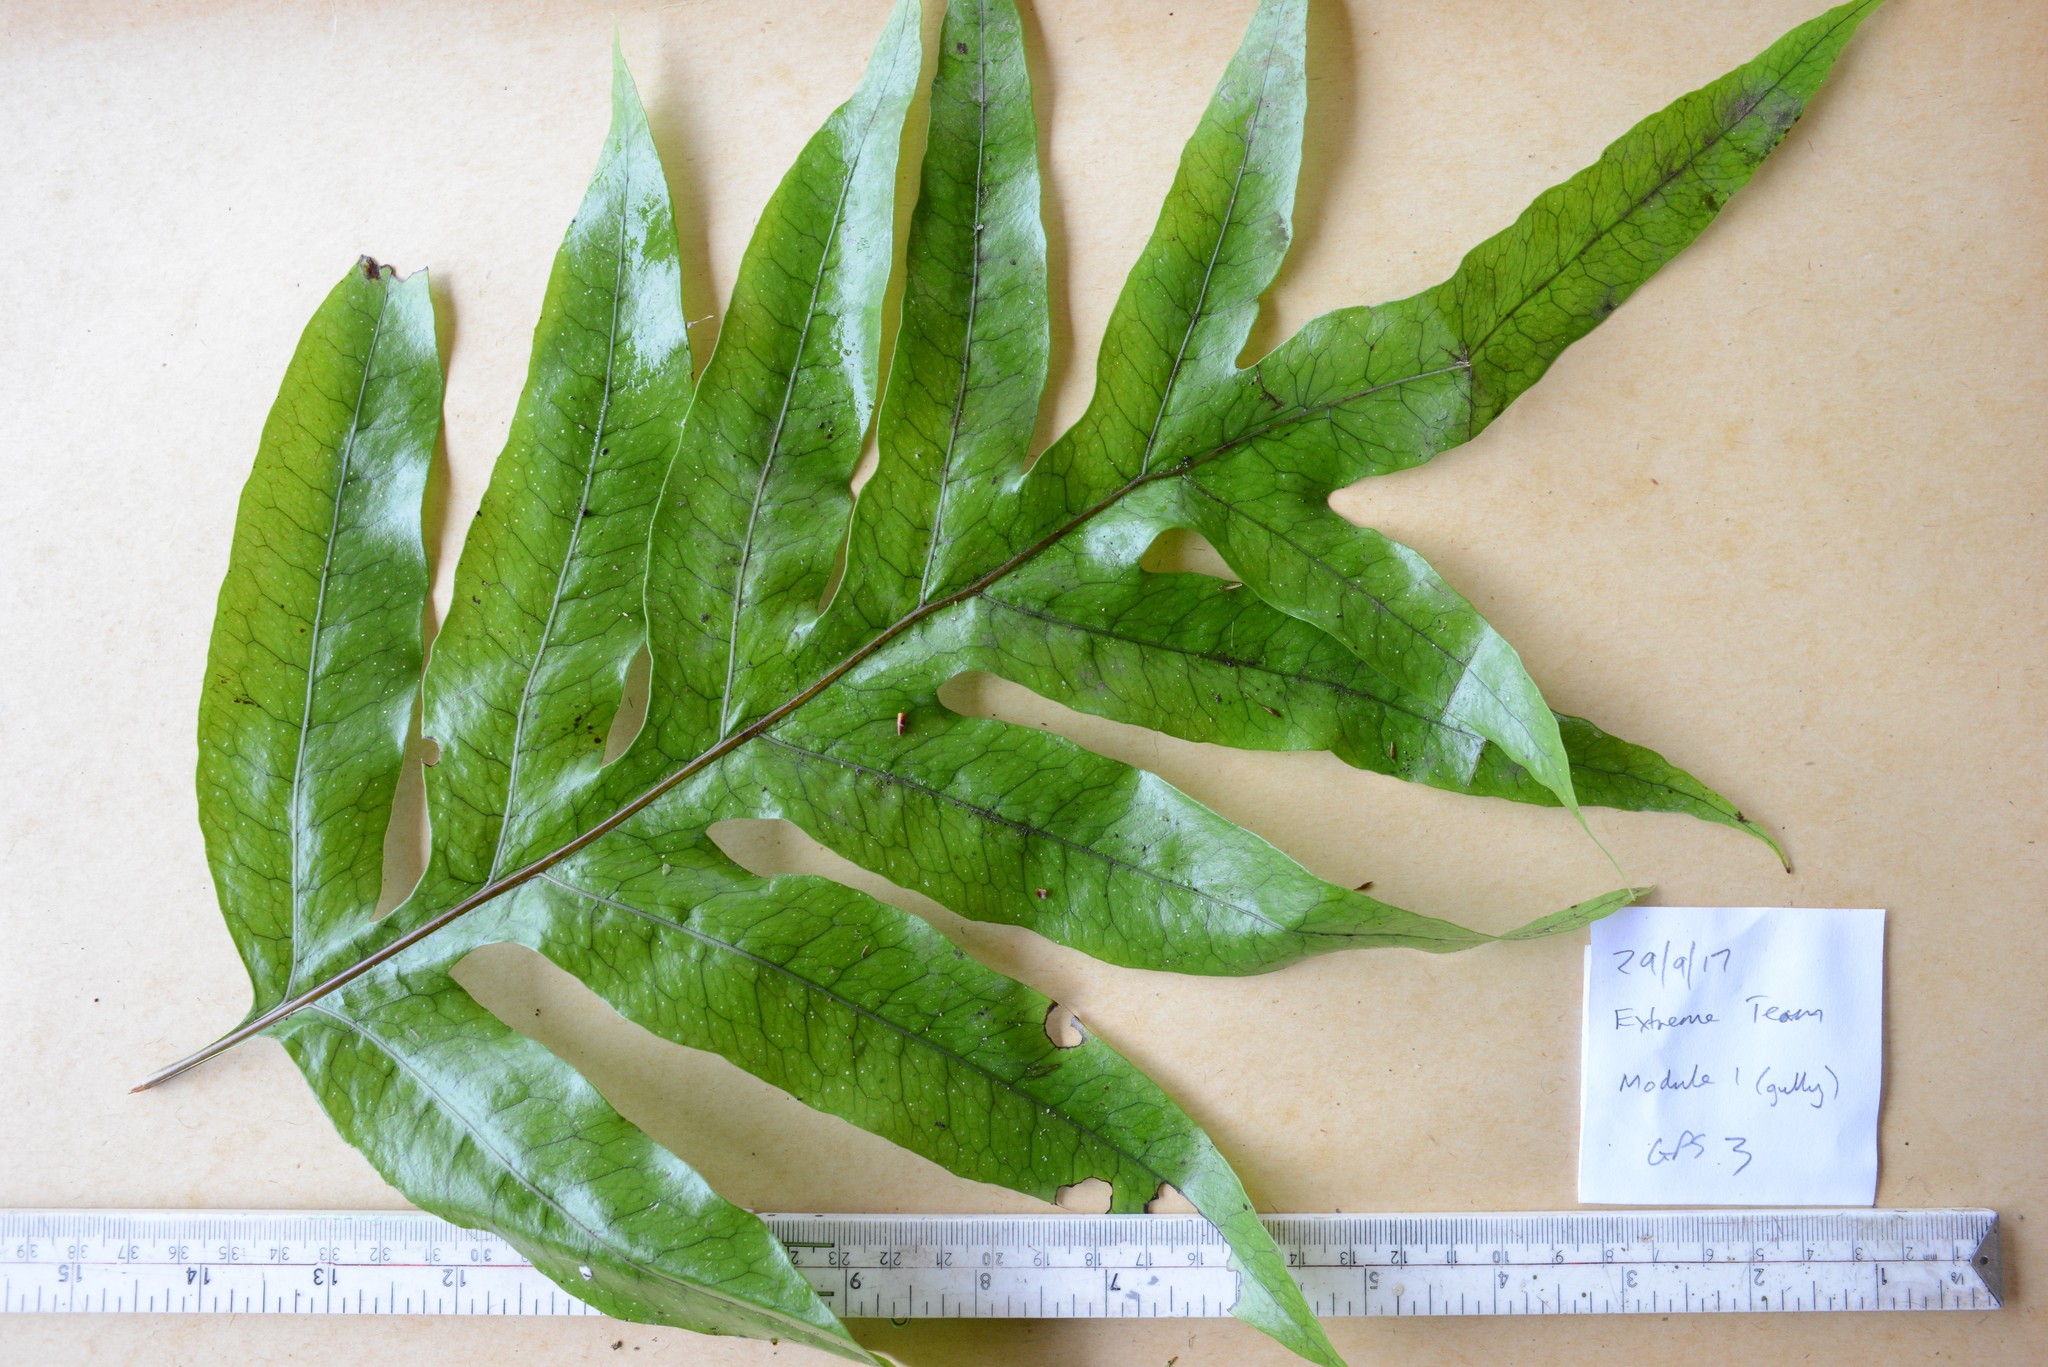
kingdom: Plantae
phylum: Tracheophyta
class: Polypodiopsida
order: Polypodiales
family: Polypodiaceae
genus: Lecanopteris
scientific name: Lecanopteris pustulata
